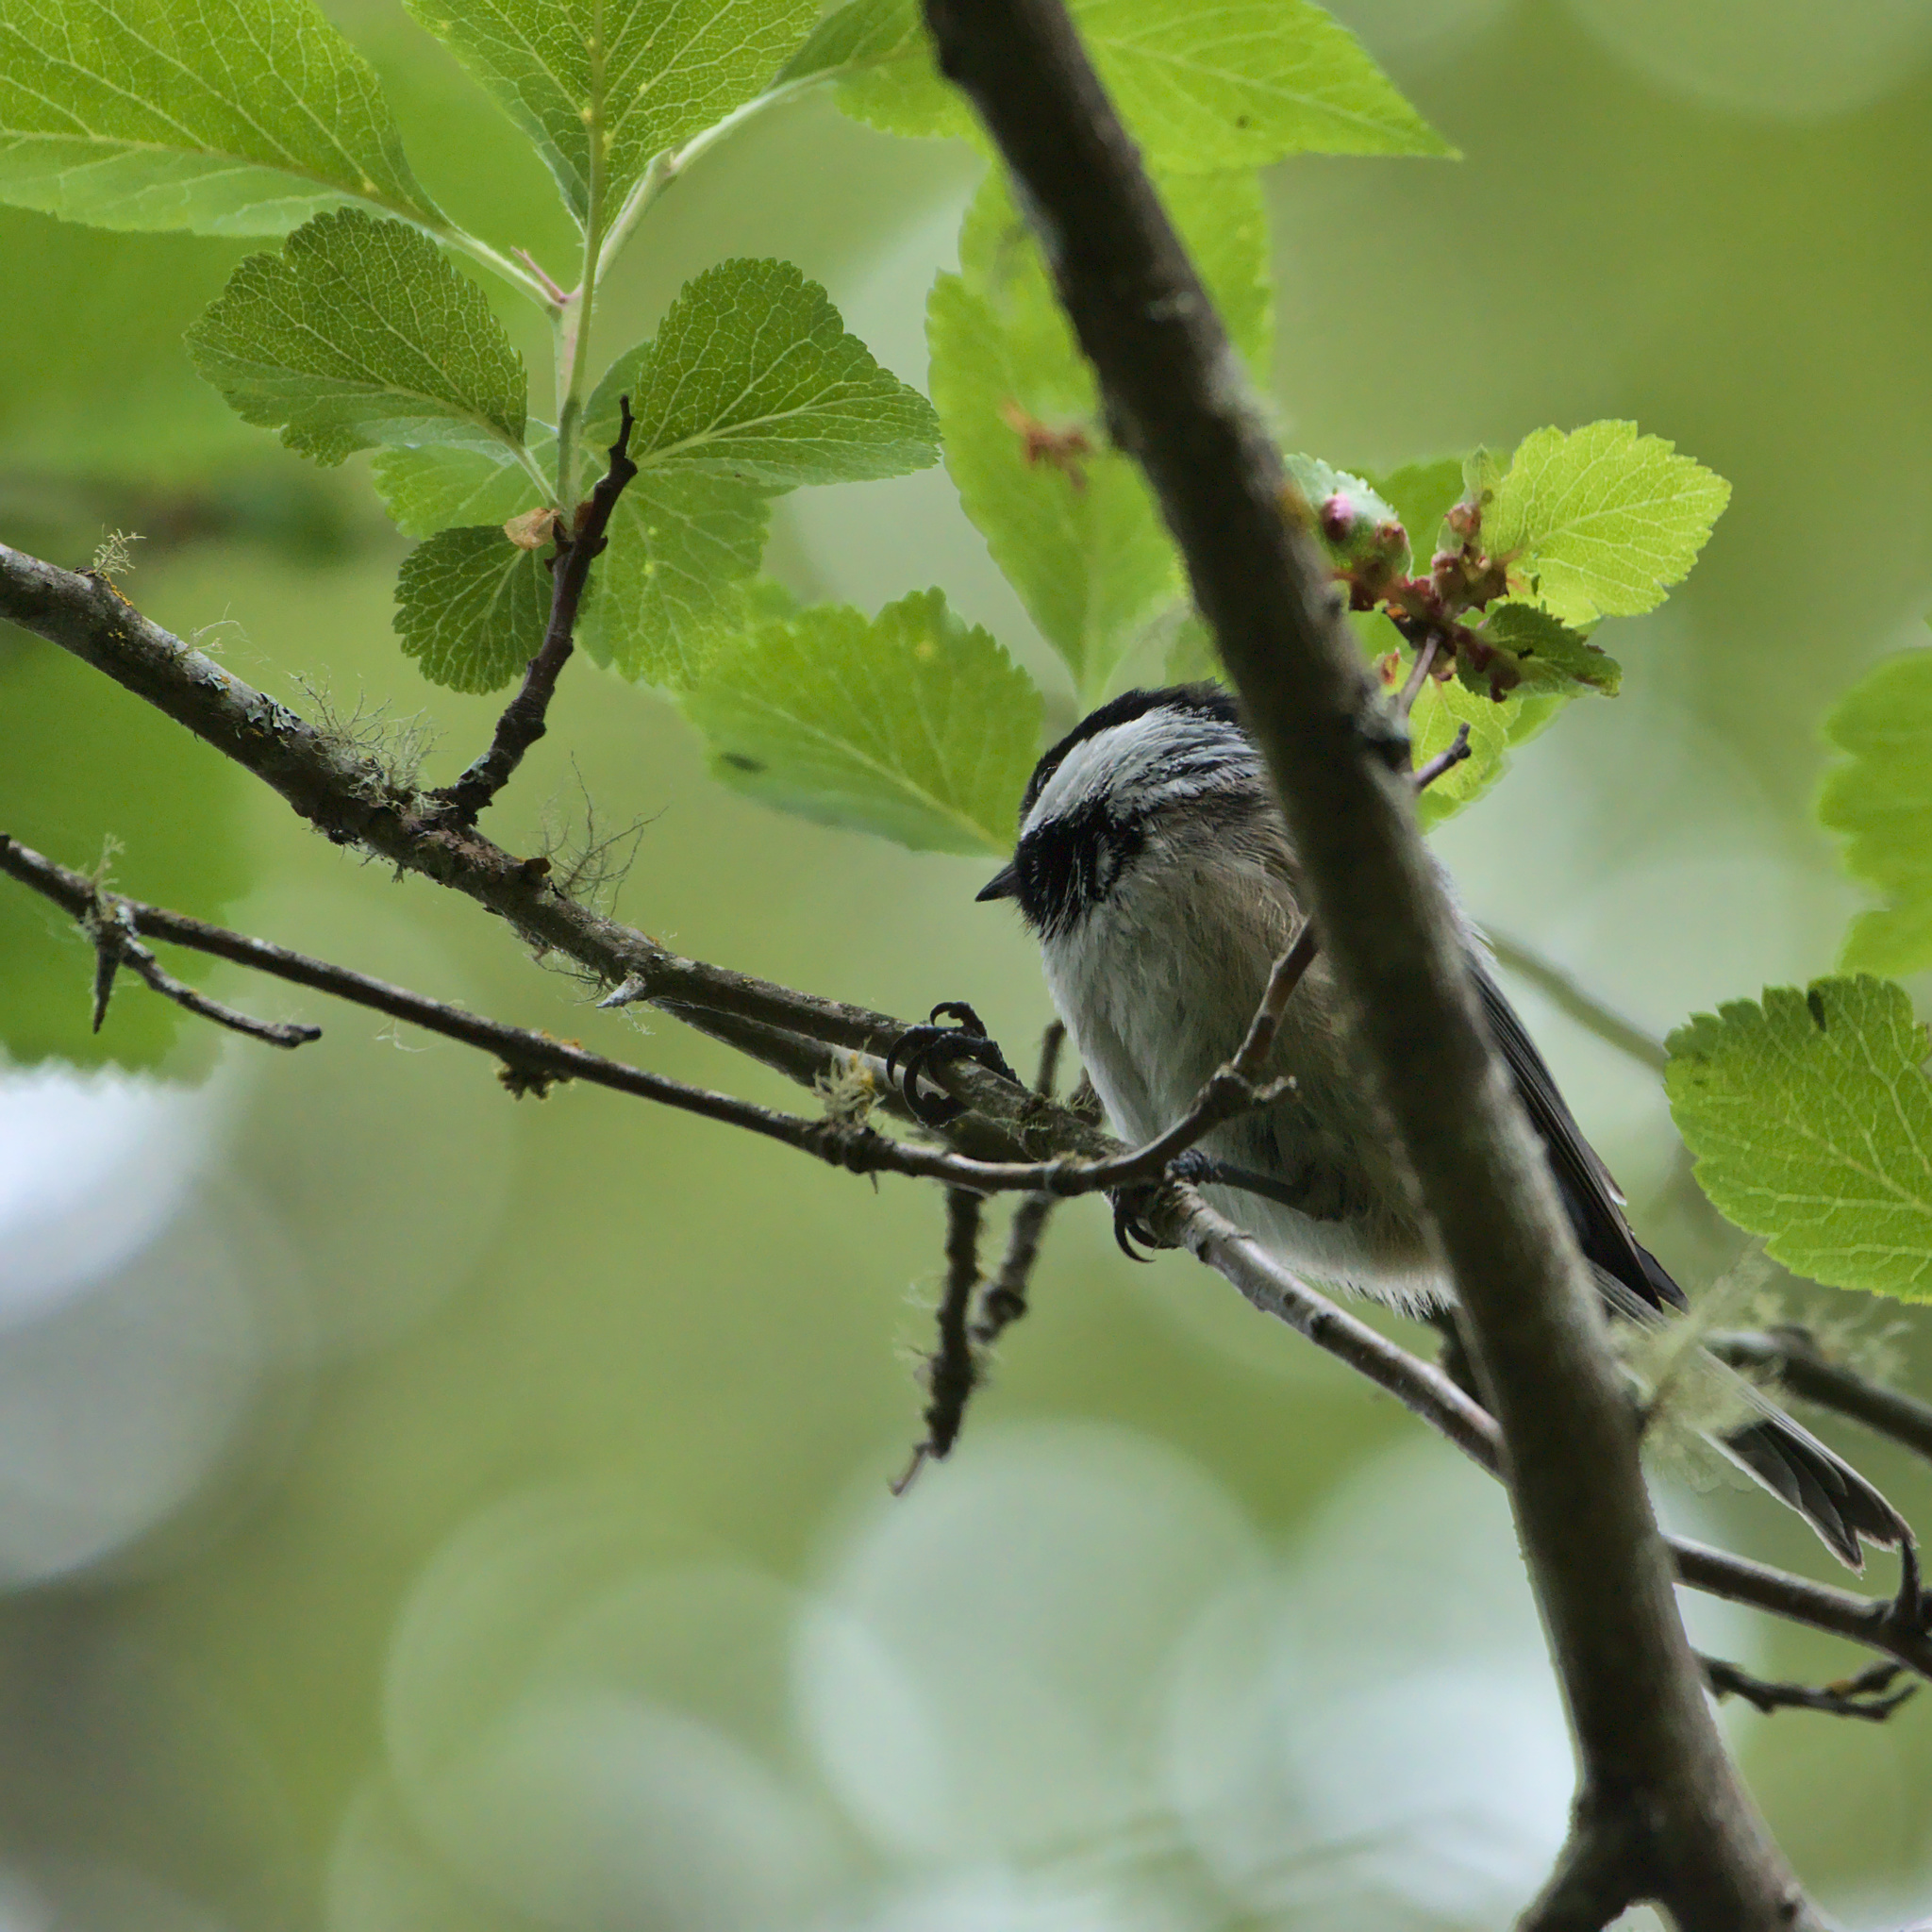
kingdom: Animalia
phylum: Chordata
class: Aves
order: Passeriformes
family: Paridae
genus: Poecile
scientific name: Poecile atricapillus
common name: Black-capped chickadee
